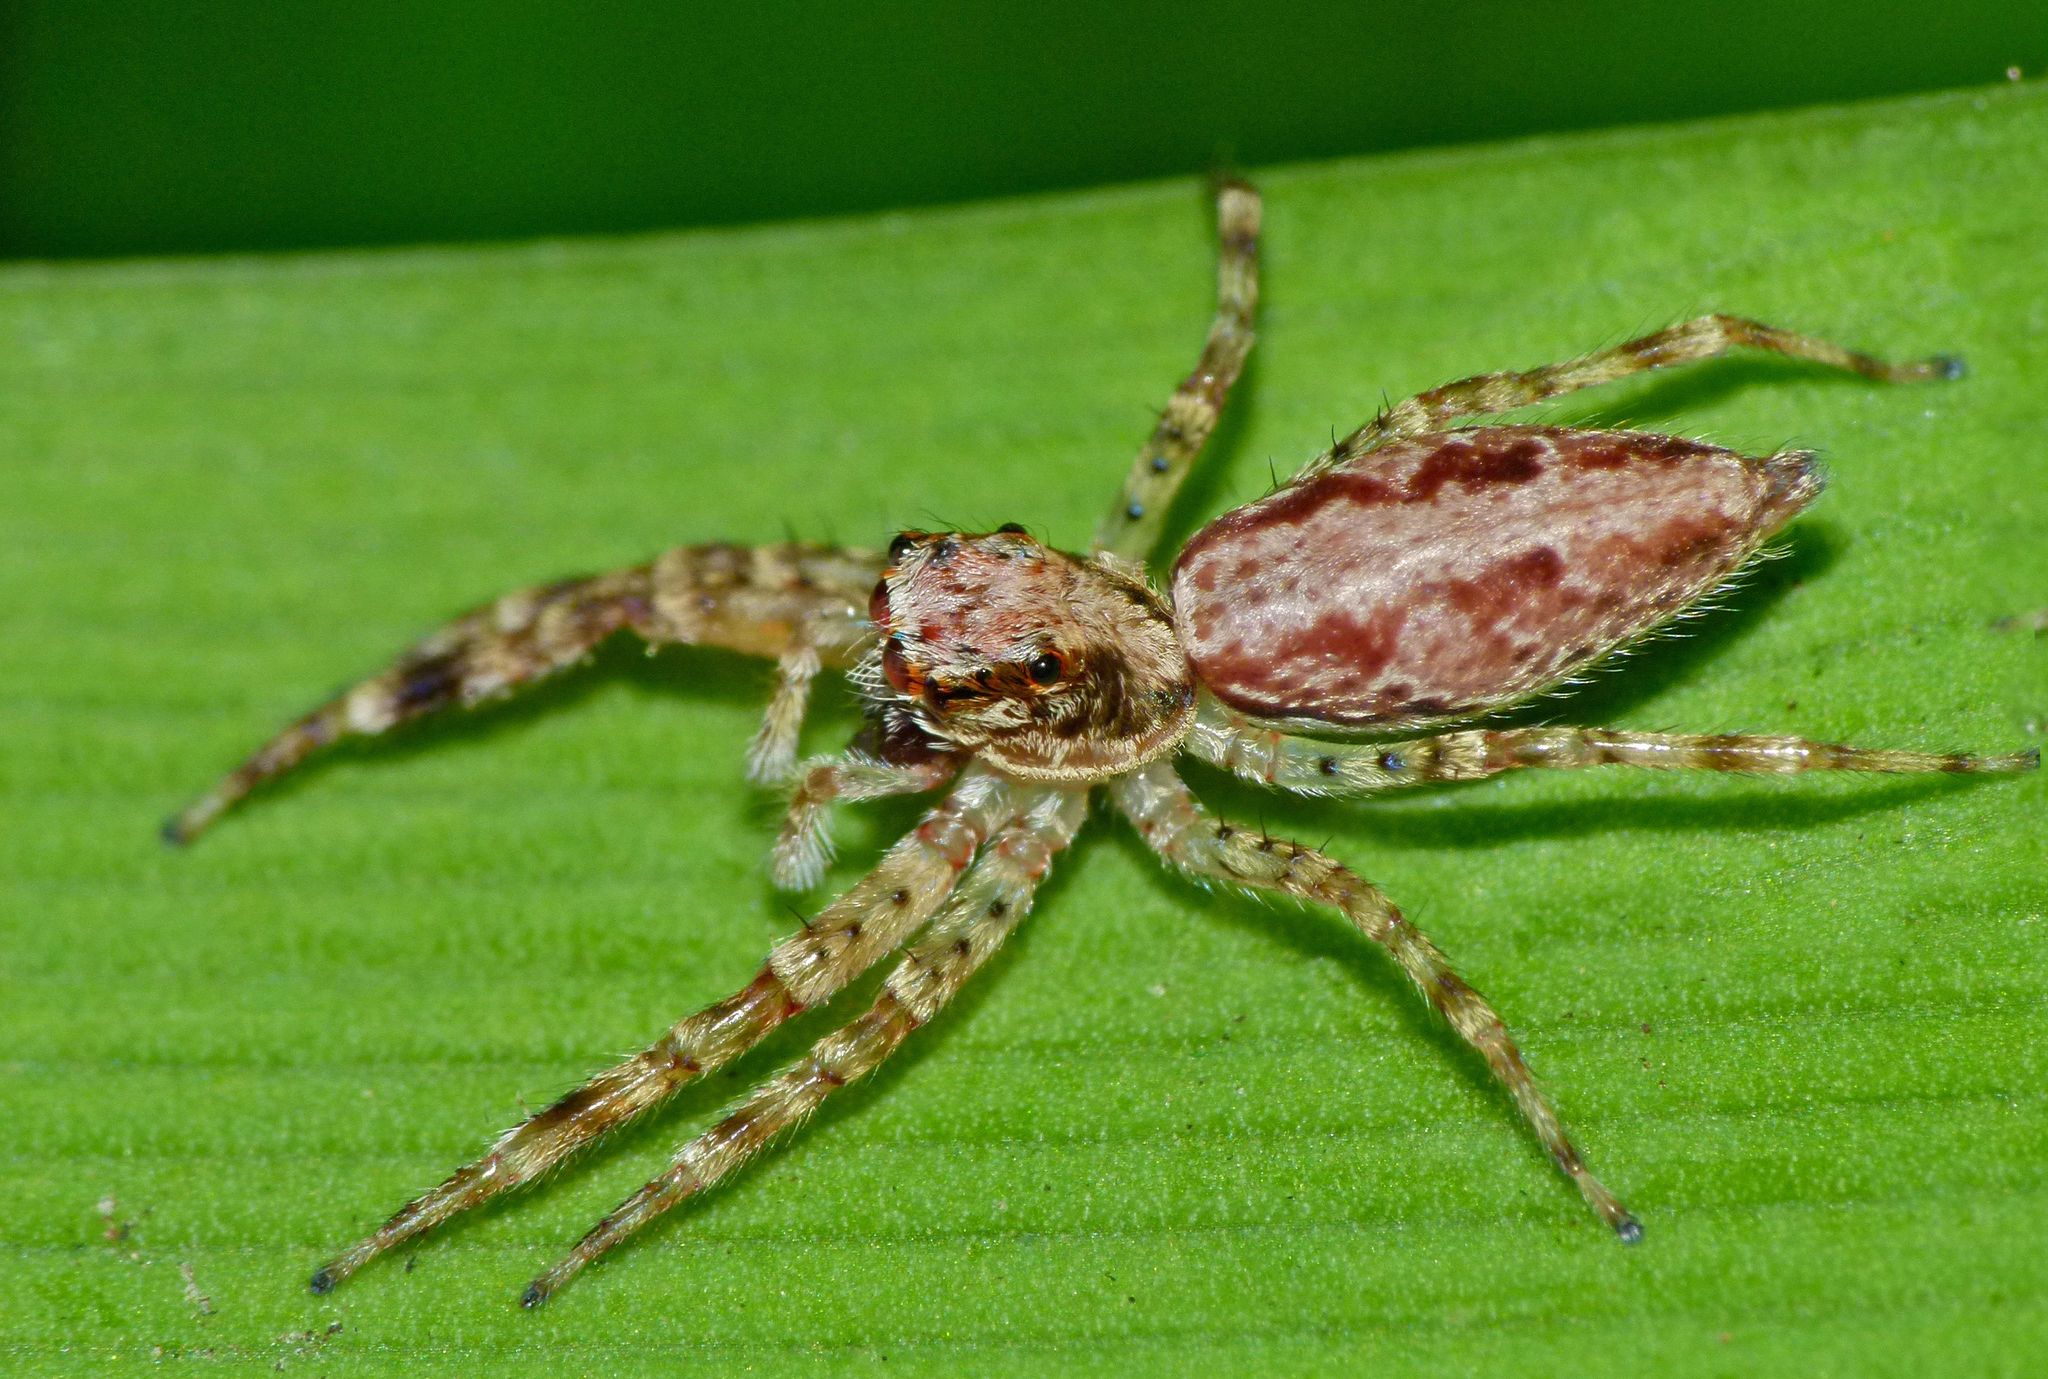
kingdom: Animalia
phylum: Arthropoda
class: Arachnida
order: Araneae
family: Salticidae
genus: Helpis
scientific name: Helpis minitabunda
